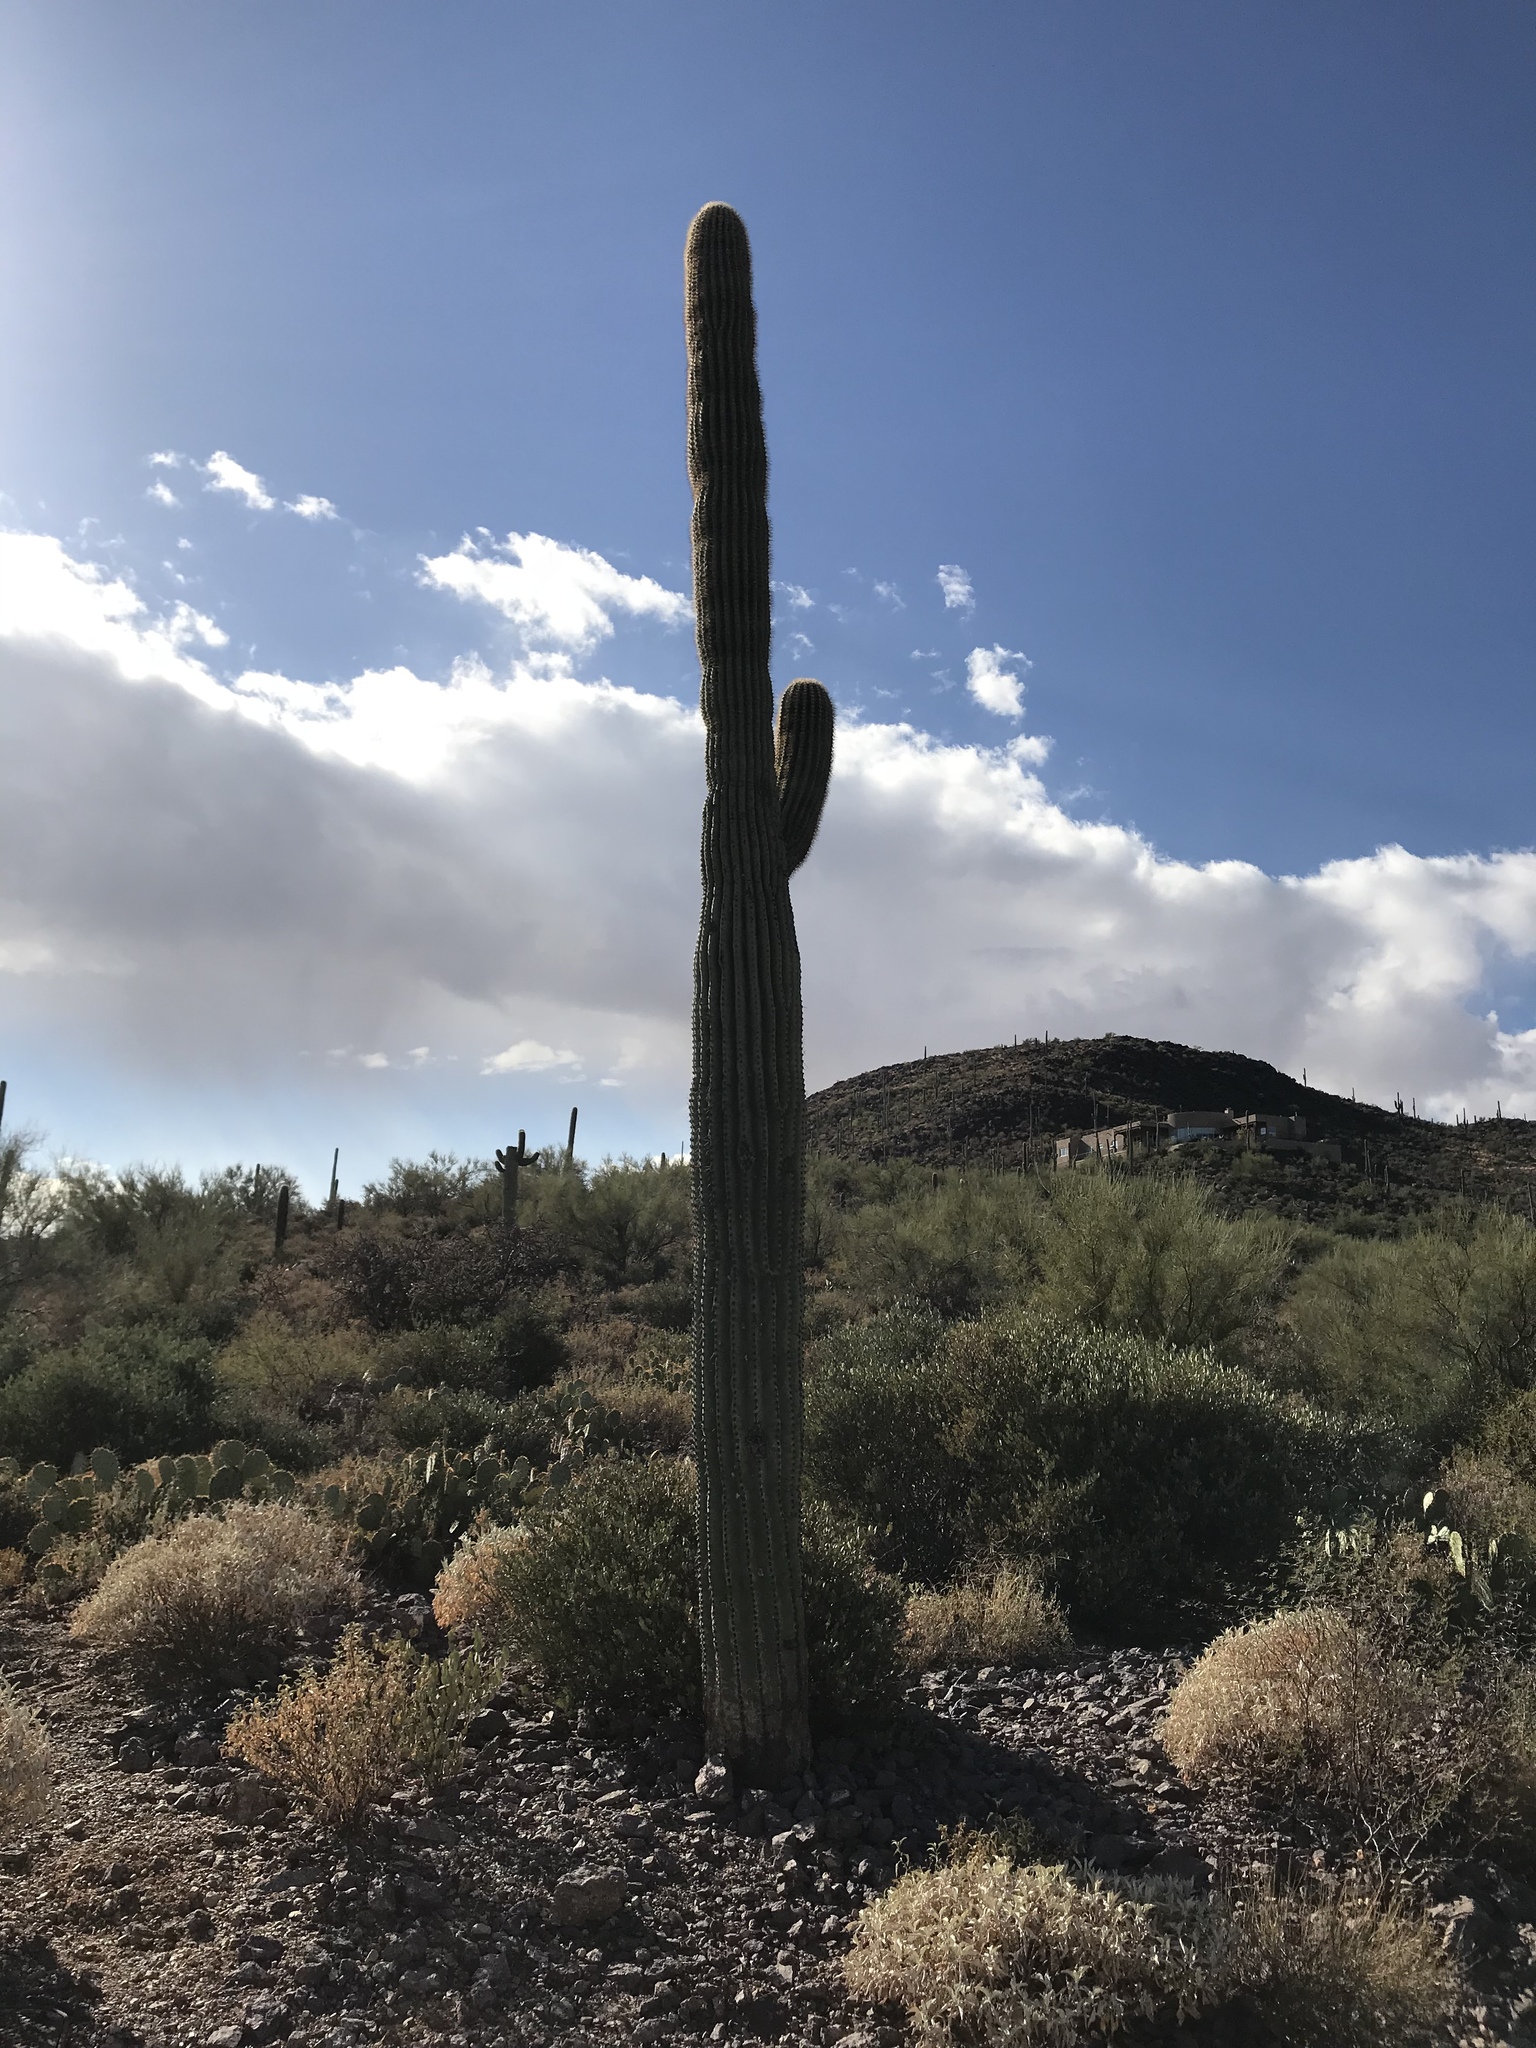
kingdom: Plantae
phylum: Tracheophyta
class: Magnoliopsida
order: Caryophyllales
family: Cactaceae
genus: Carnegiea
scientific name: Carnegiea gigantea
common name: Saguaro
